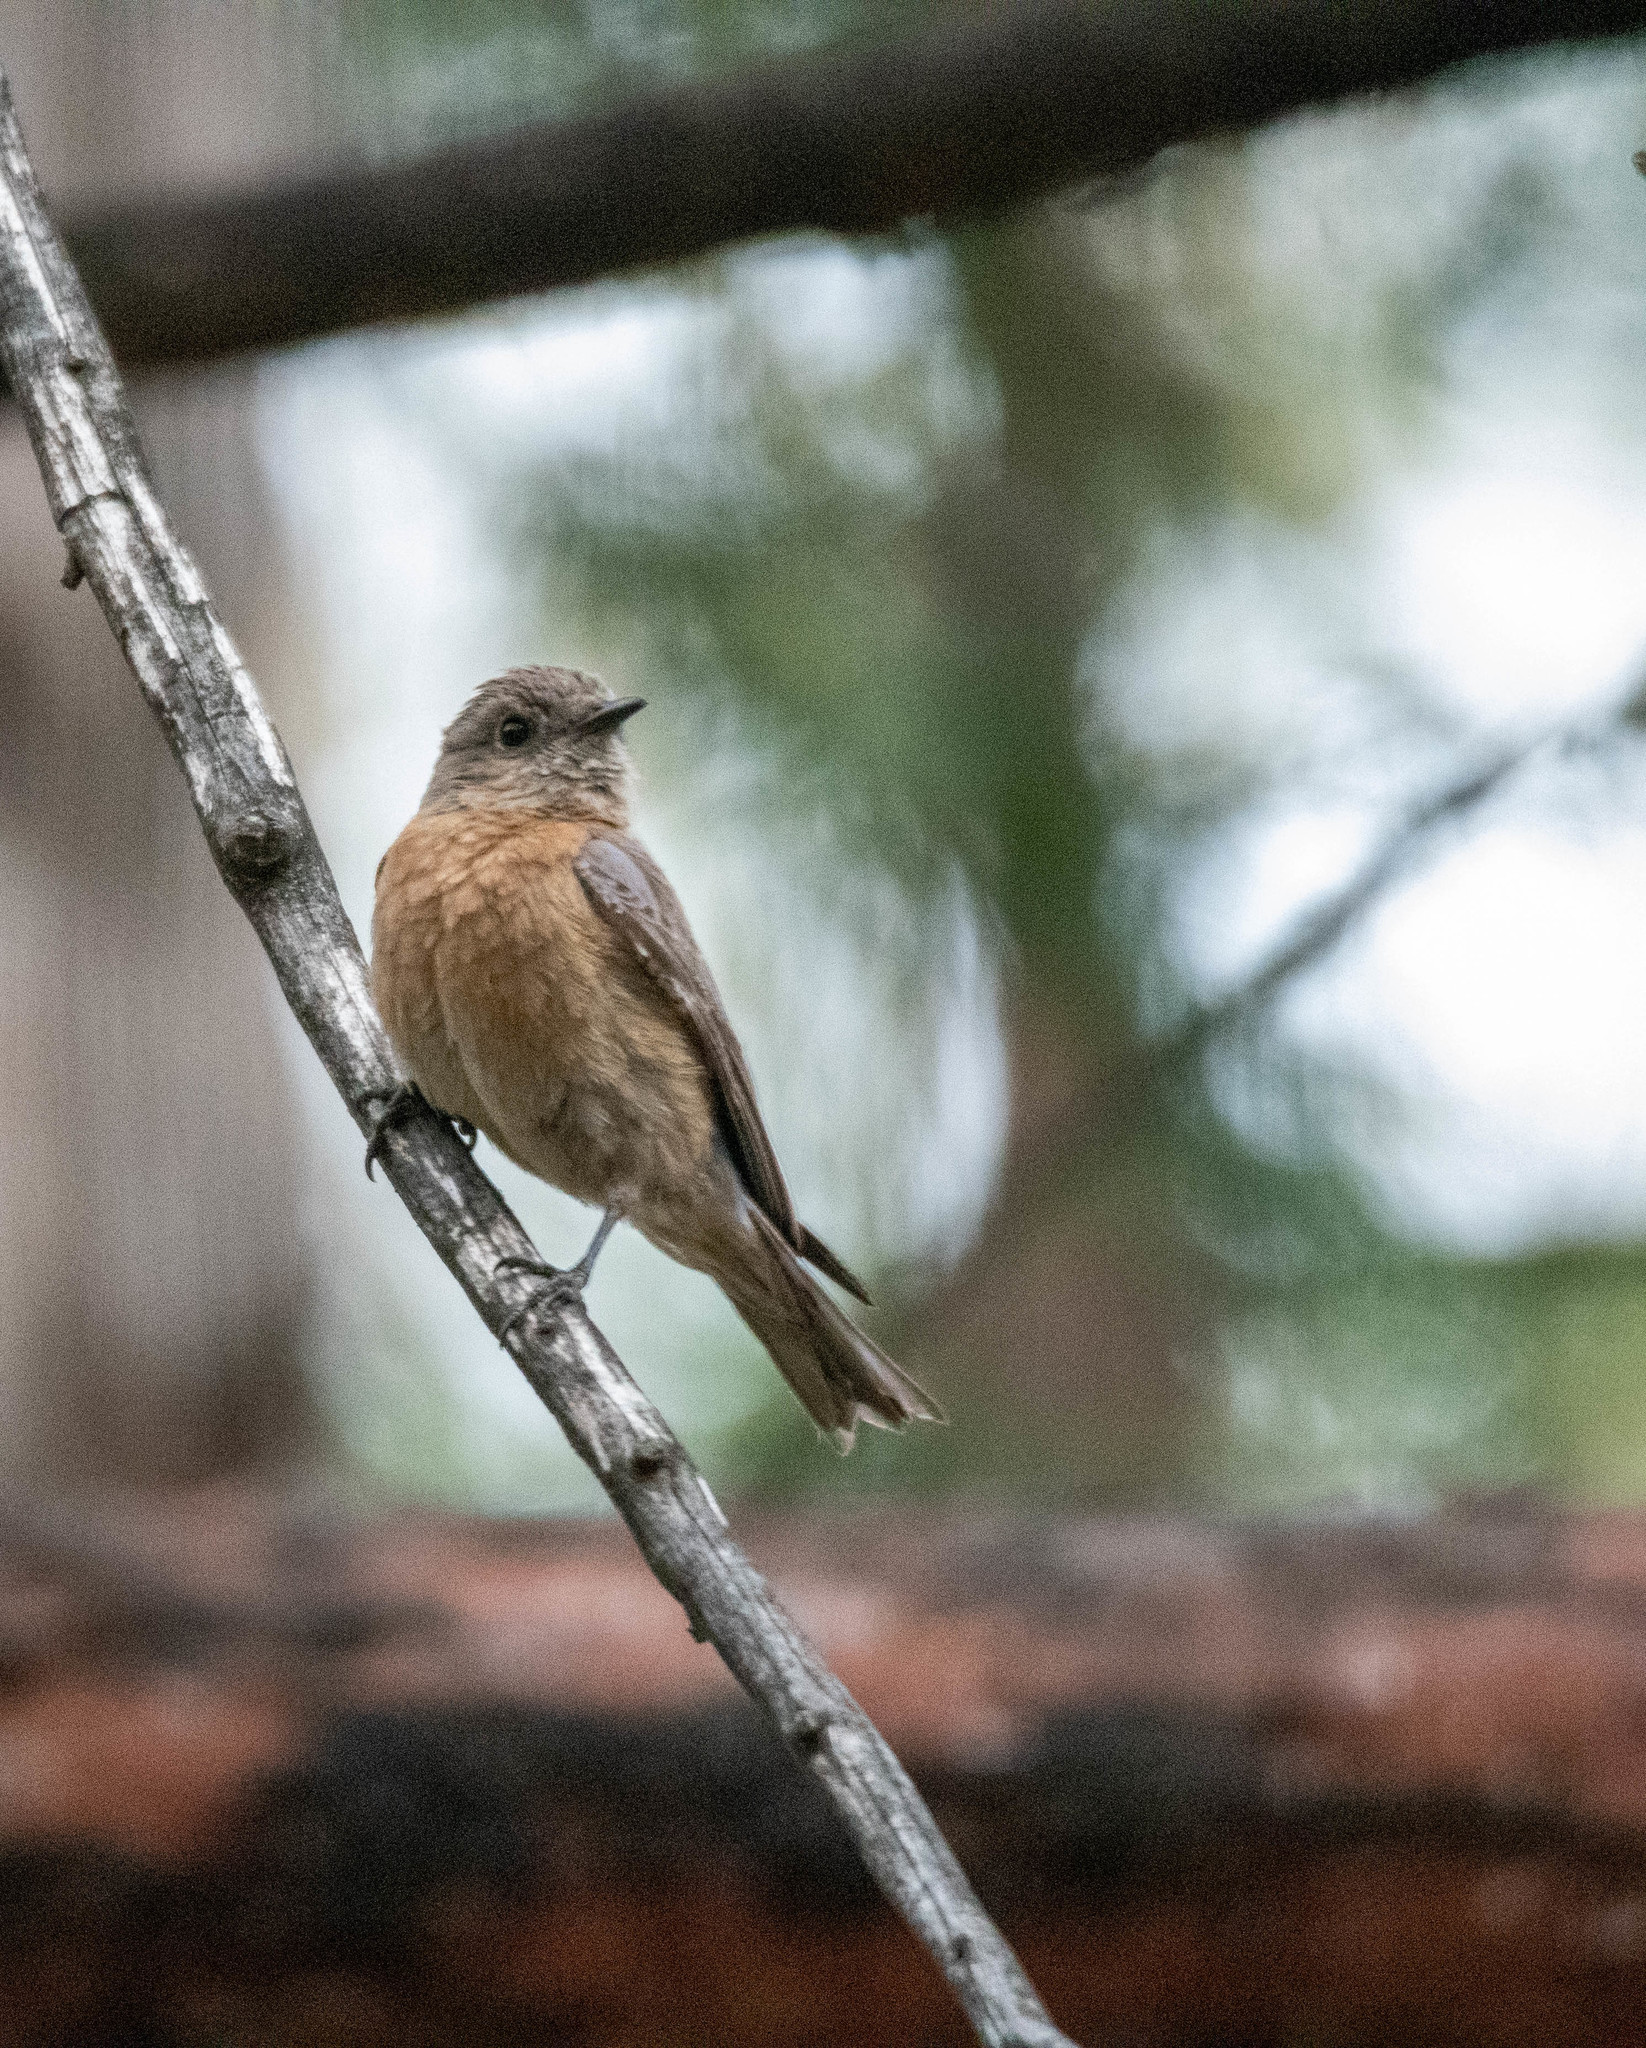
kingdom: Animalia
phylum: Chordata
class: Aves
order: Passeriformes
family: Turdidae
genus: Sialia
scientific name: Sialia mexicana
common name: Western bluebird
